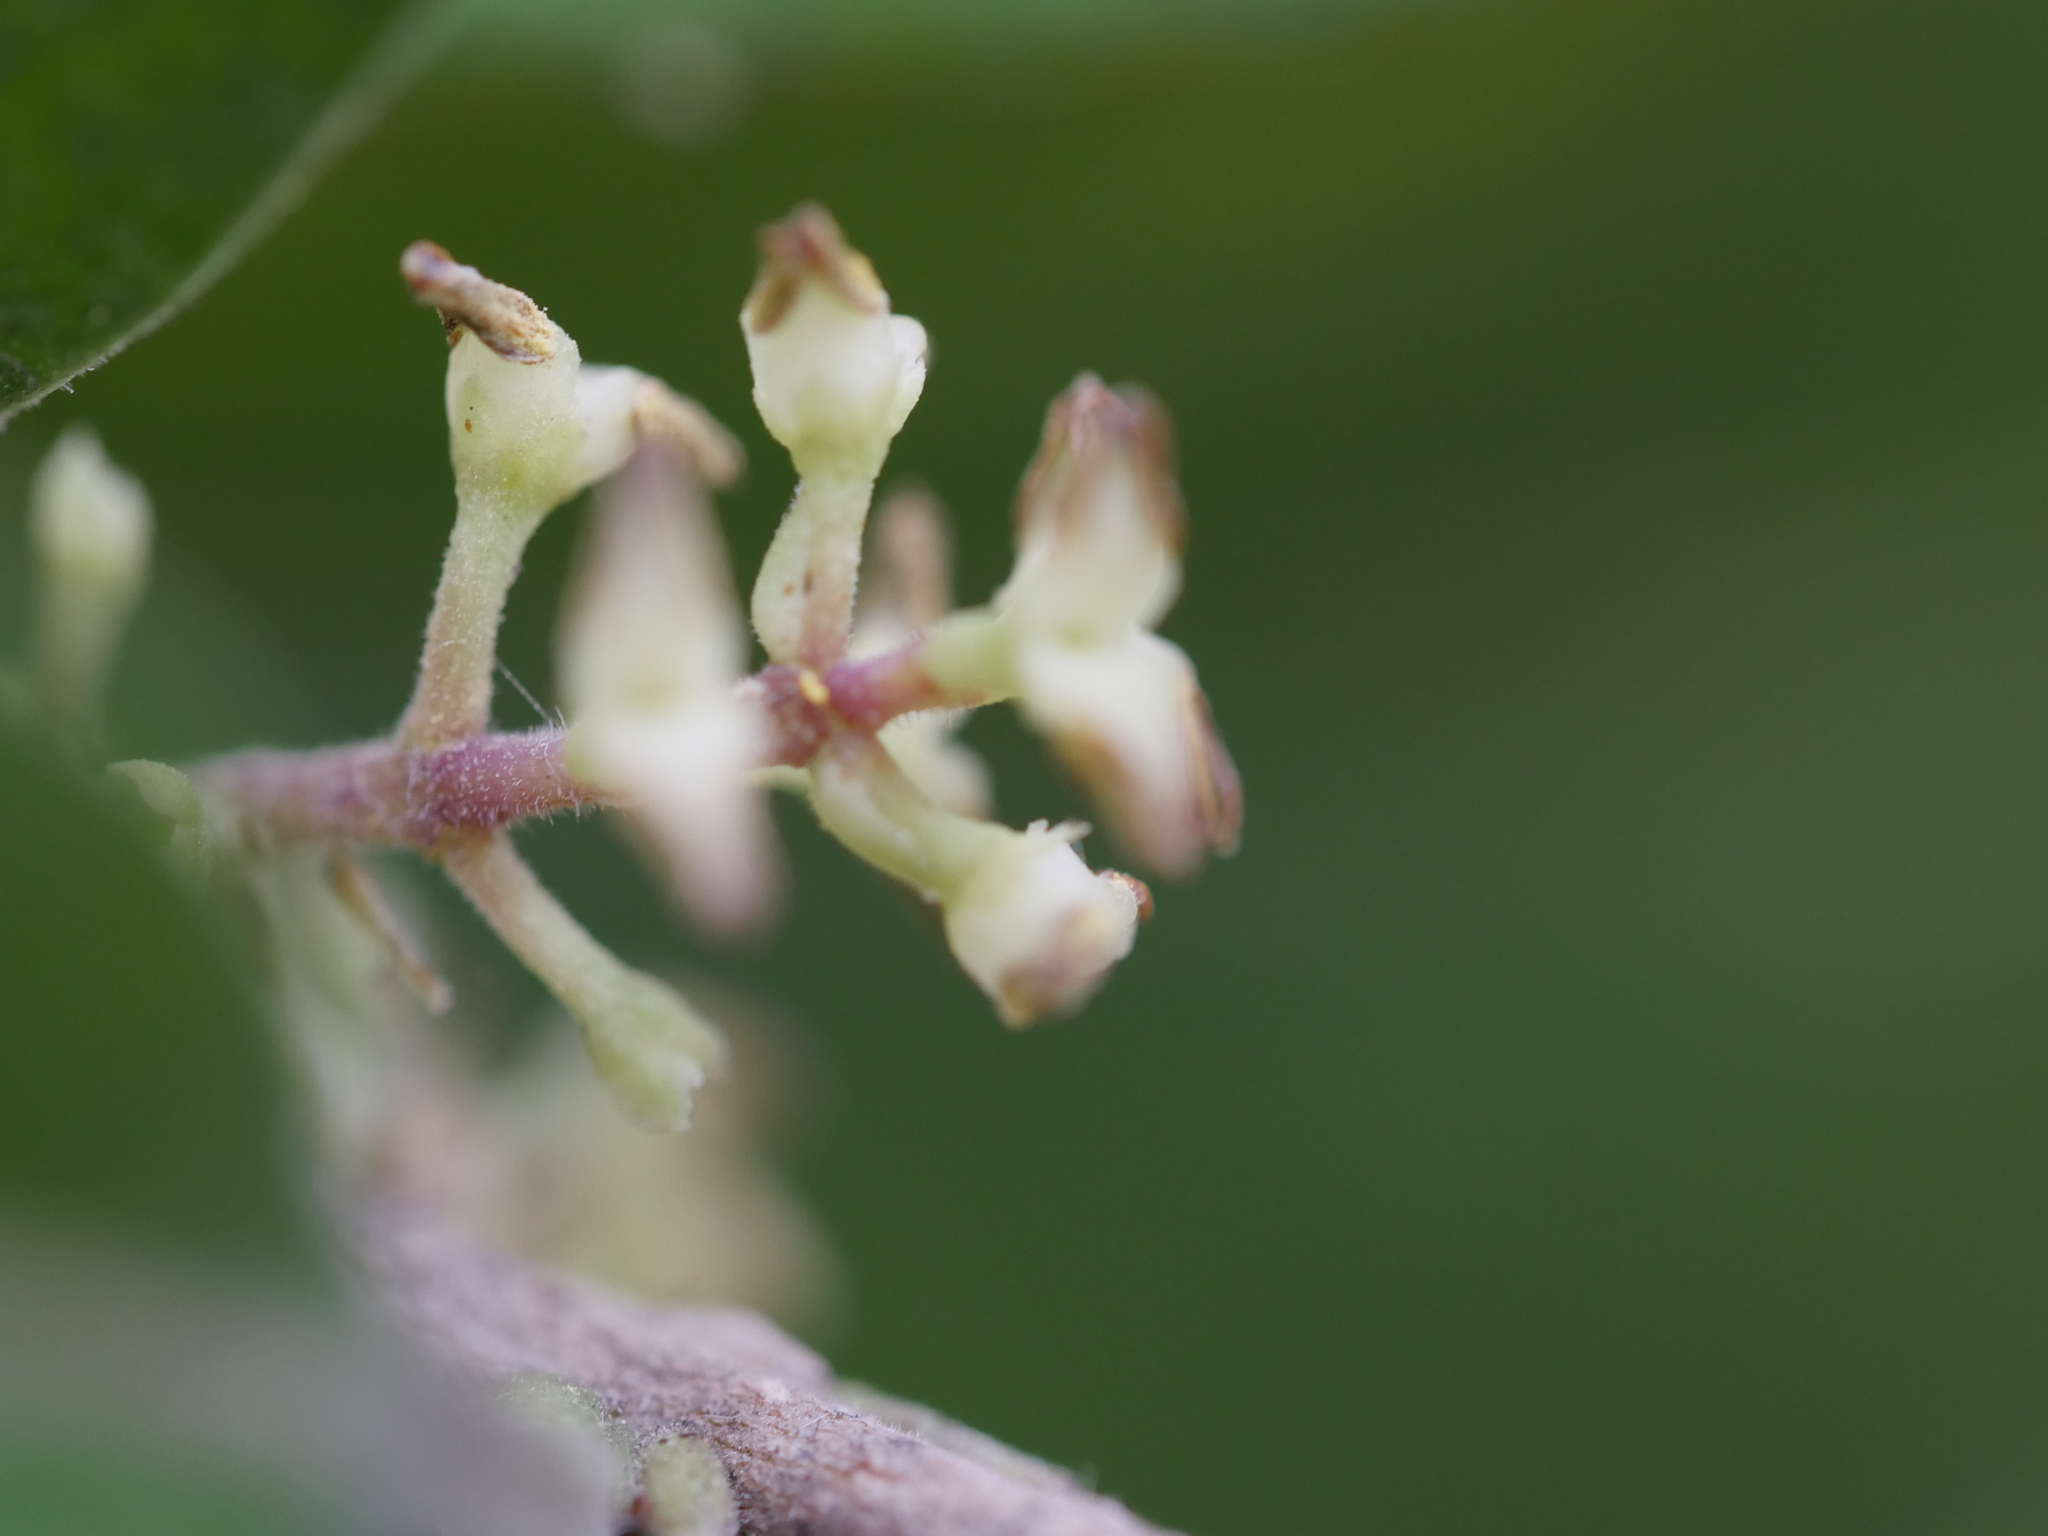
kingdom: Plantae
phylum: Tracheophyta
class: Magnoliopsida
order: Lamiales
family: Oleaceae
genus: Nestegis
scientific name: Nestegis lanceolata
